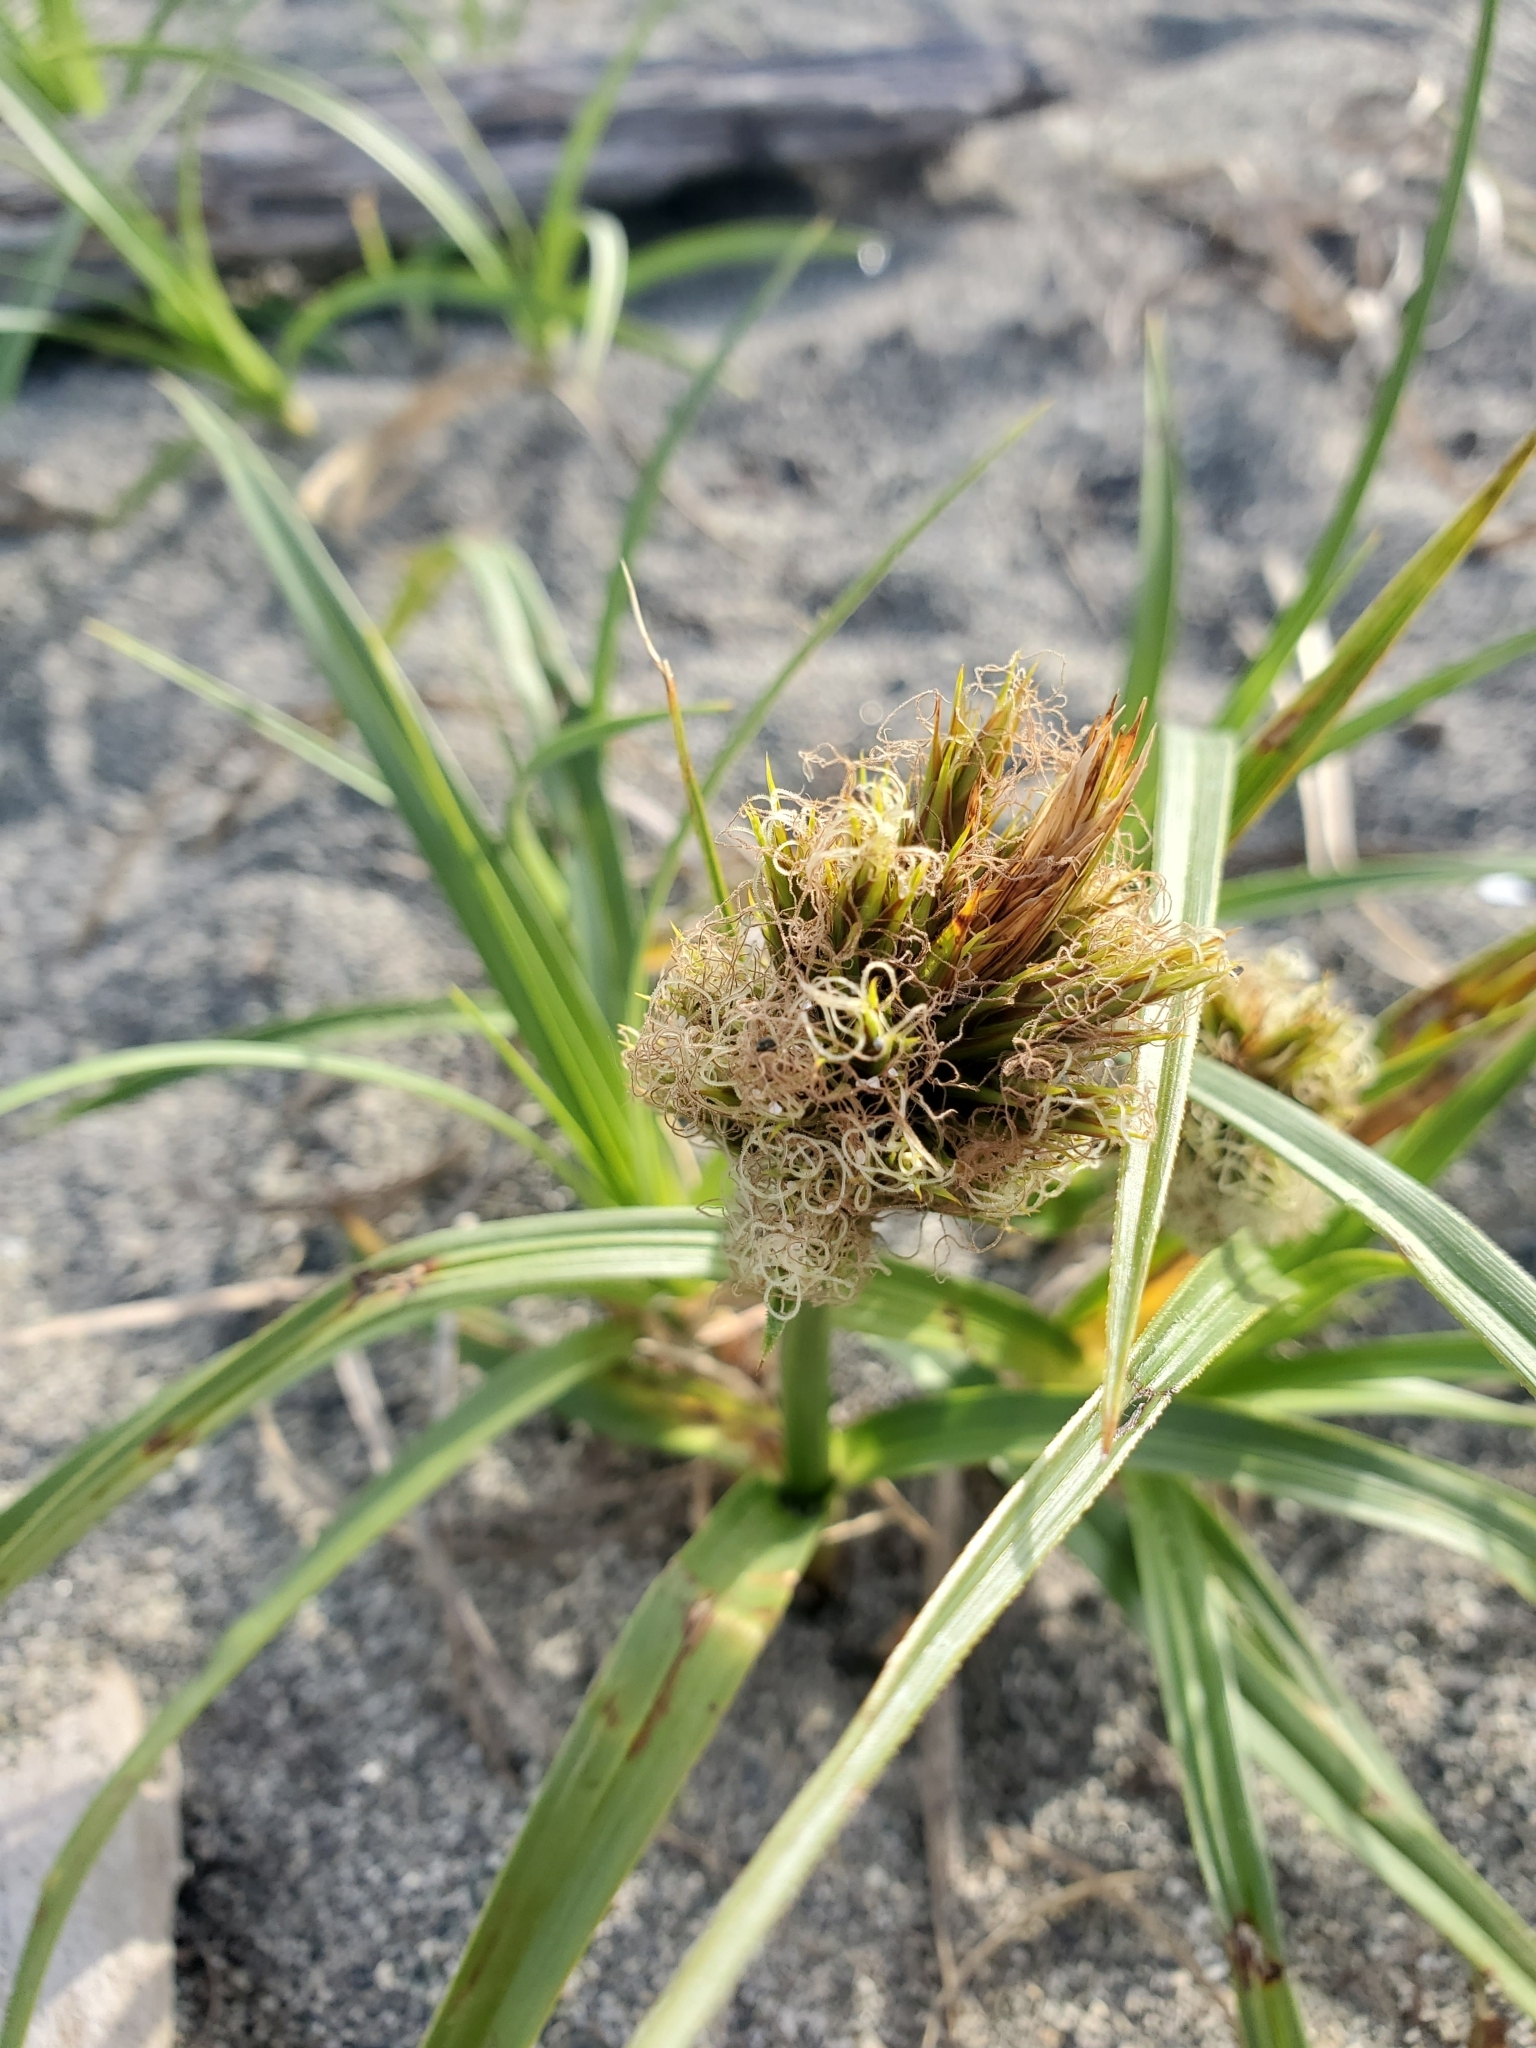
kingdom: Plantae
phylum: Tracheophyta
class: Liliopsida
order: Poales
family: Cyperaceae
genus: Carex
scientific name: Carex macrocephala
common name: Large-head sedge
